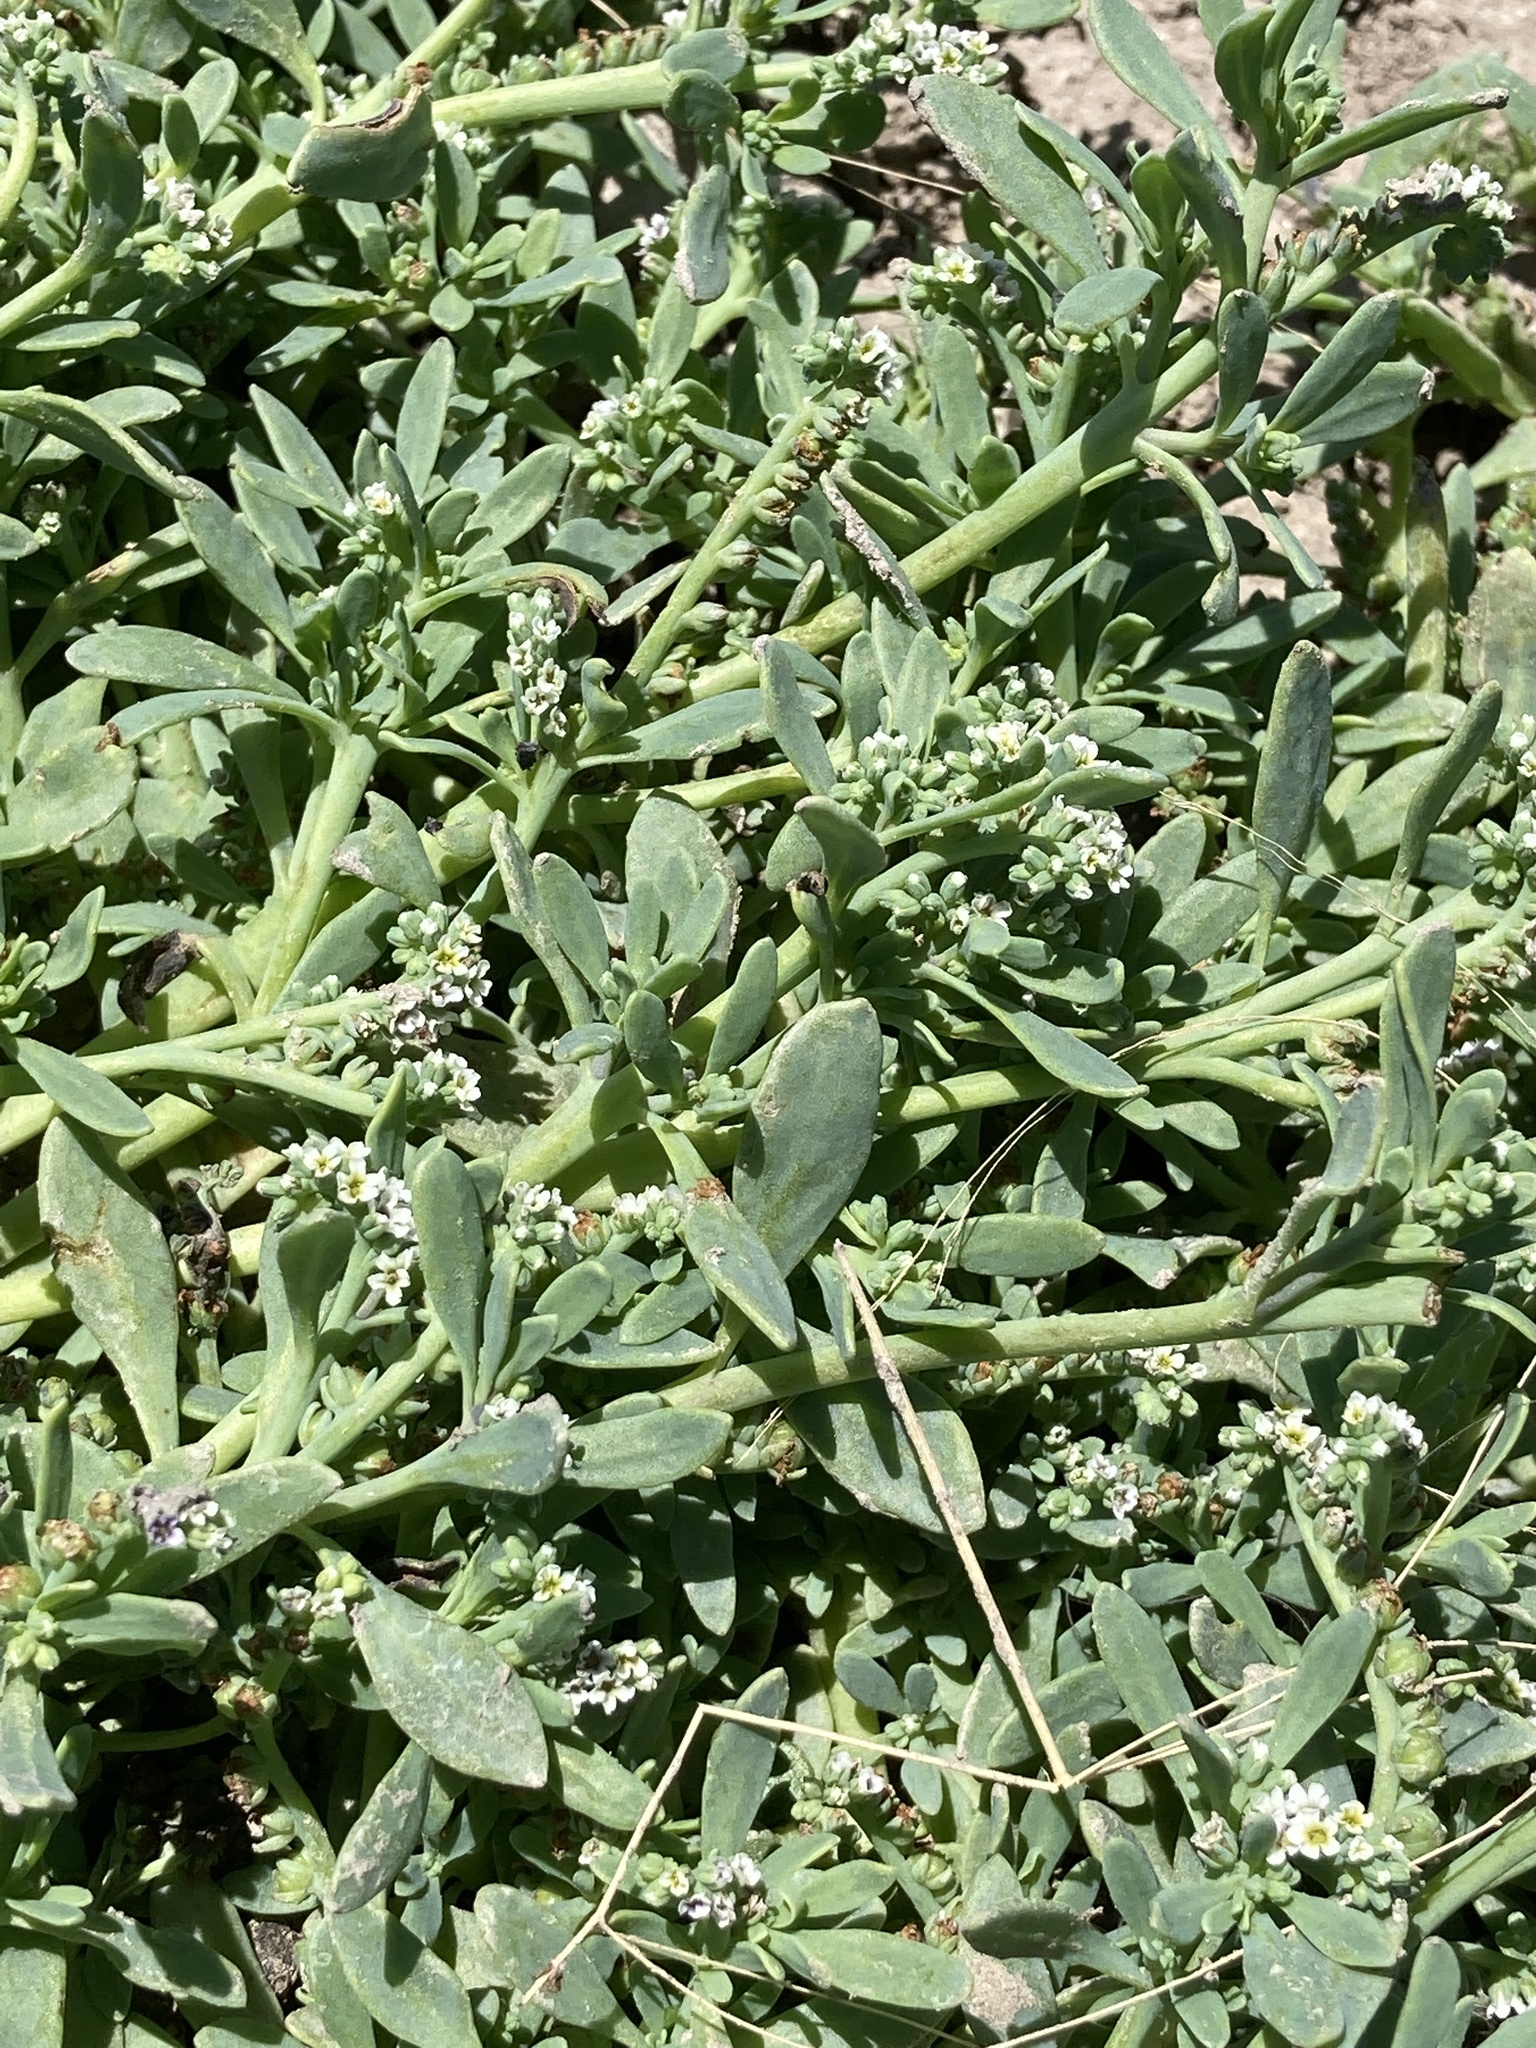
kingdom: Plantae
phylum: Tracheophyta
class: Magnoliopsida
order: Boraginales
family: Heliotropiaceae
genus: Heliotropium
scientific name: Heliotropium curassavicum
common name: Seaside heliotrope
